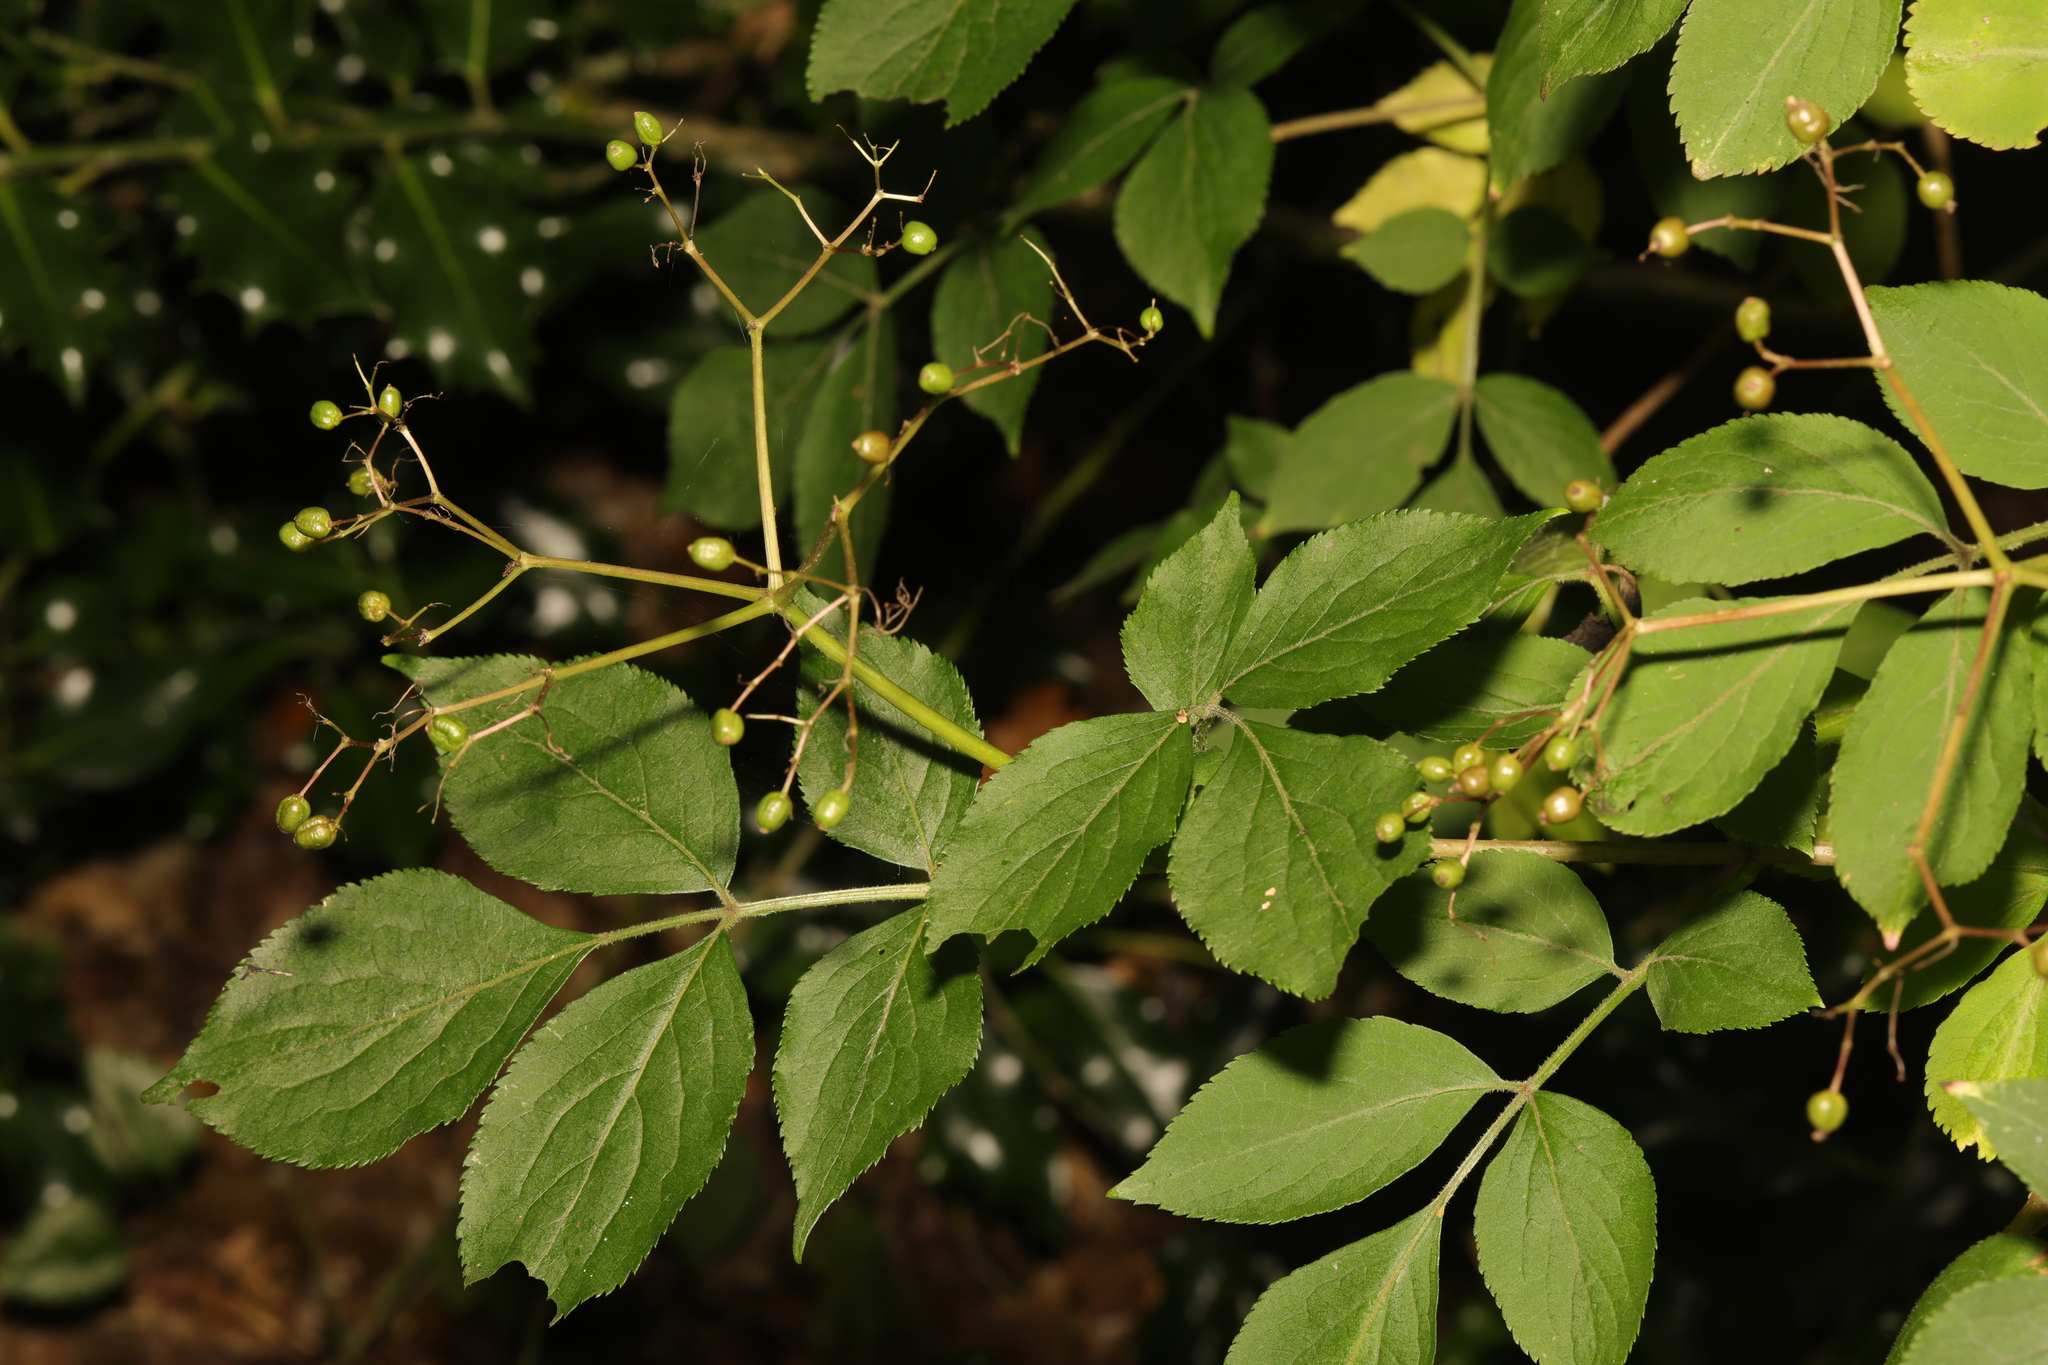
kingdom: Plantae
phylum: Tracheophyta
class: Magnoliopsida
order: Dipsacales
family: Viburnaceae
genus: Sambucus
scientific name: Sambucus nigra
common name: Elder
